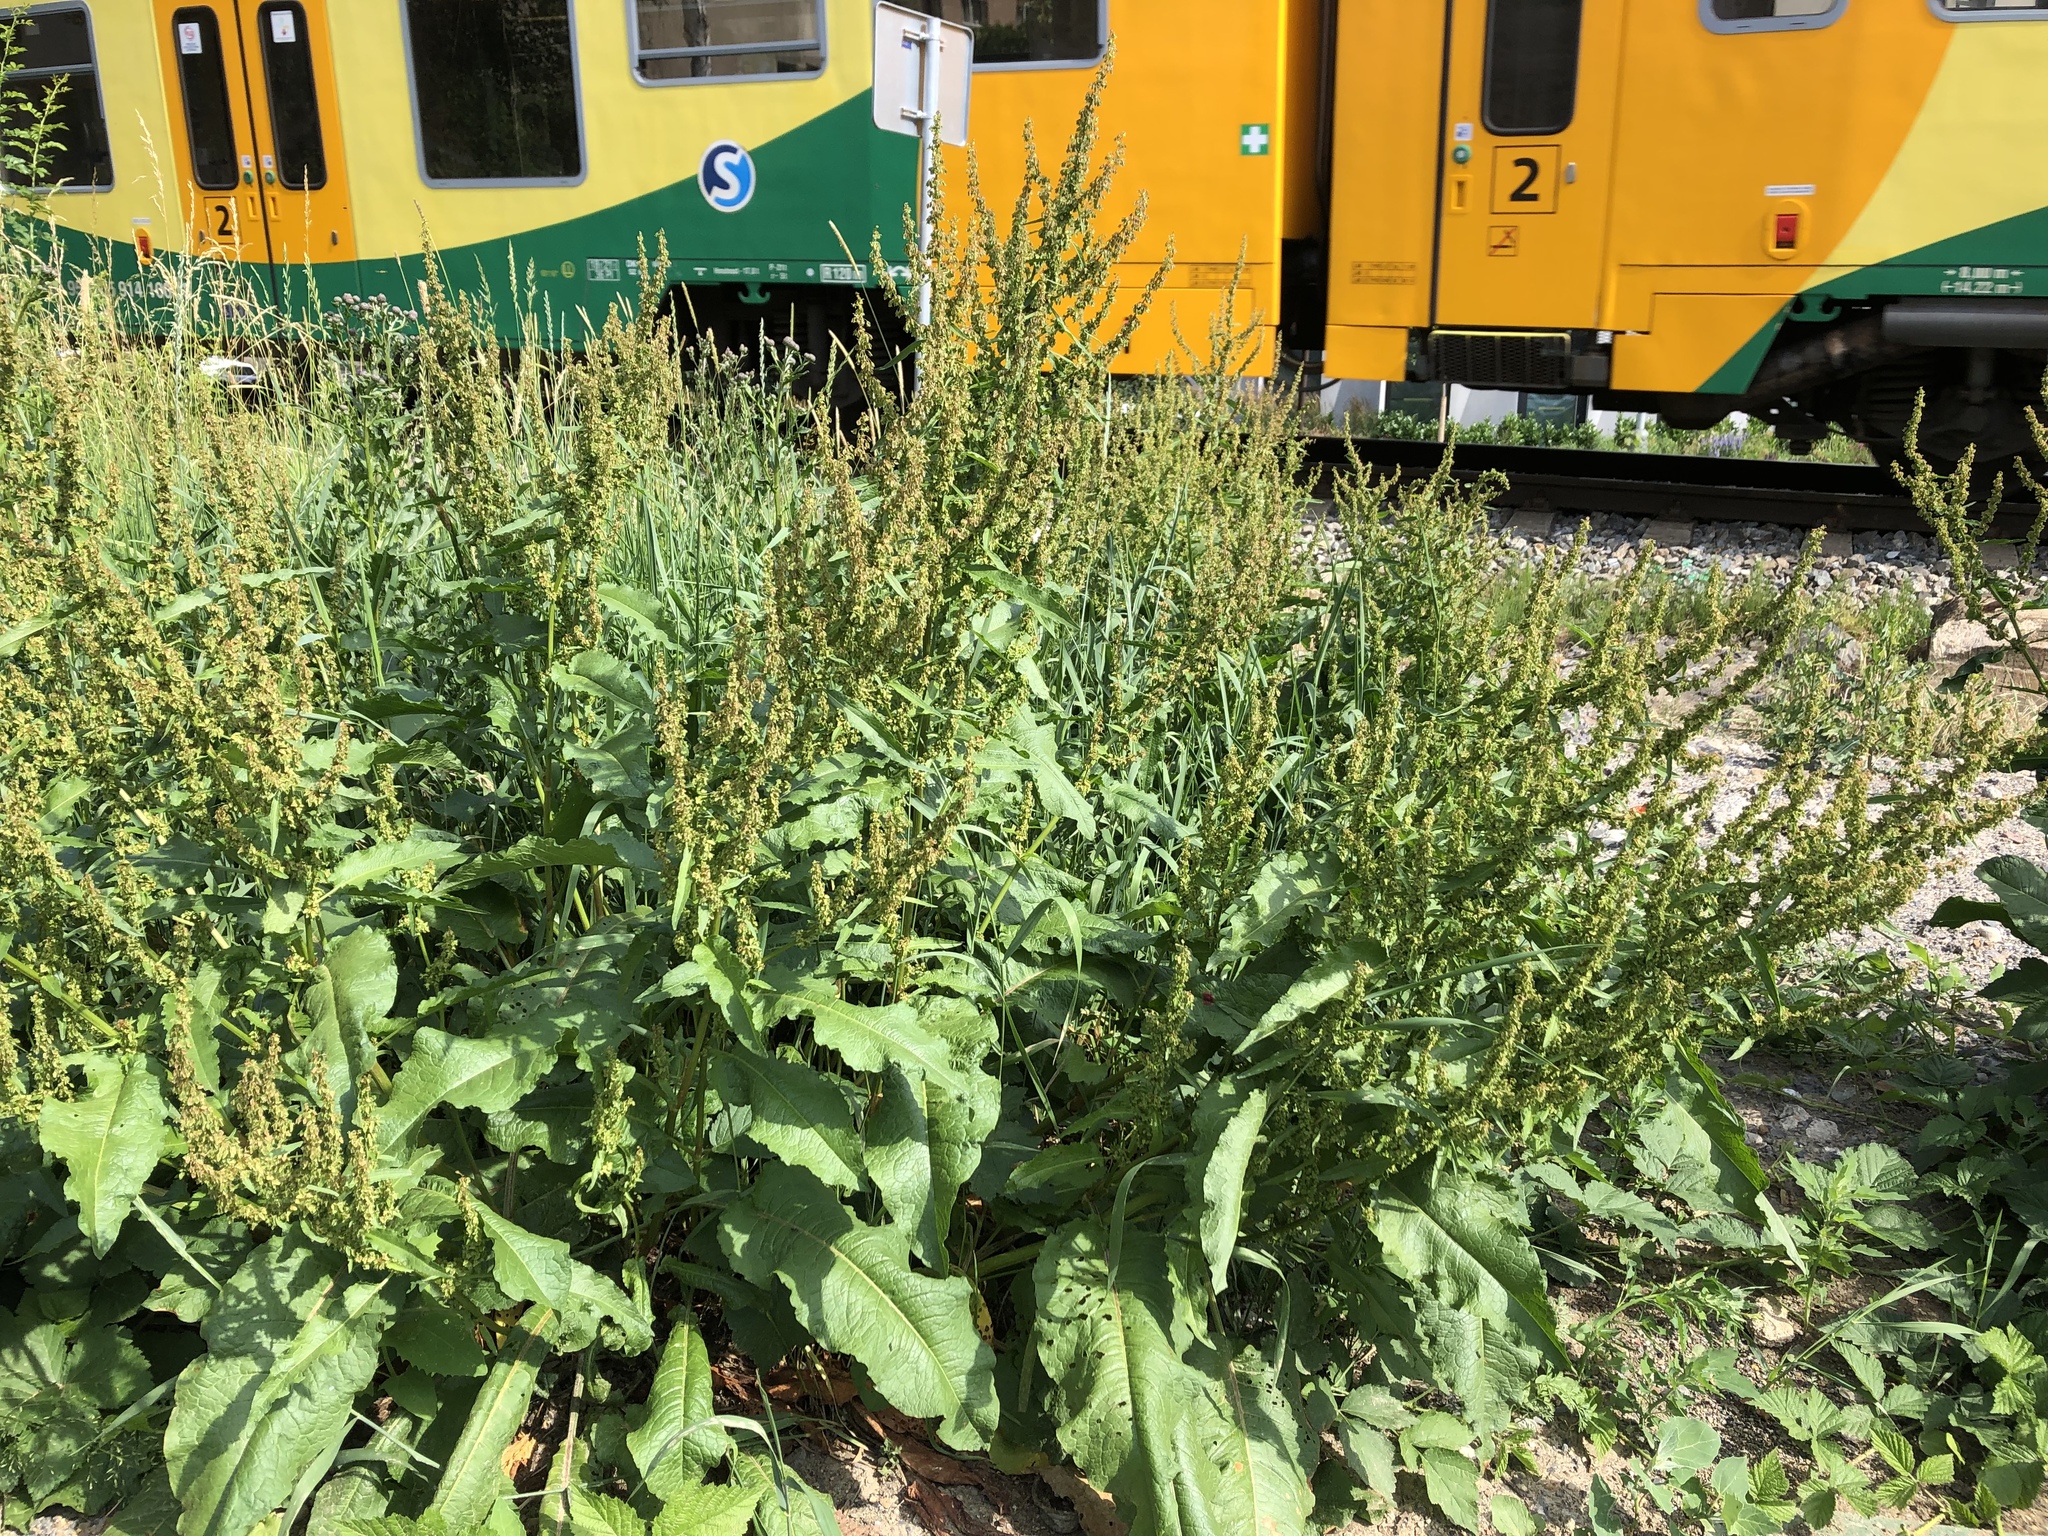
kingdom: Plantae
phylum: Tracheophyta
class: Magnoliopsida
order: Caryophyllales
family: Polygonaceae
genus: Rumex
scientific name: Rumex obtusifolius
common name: Bitter dock
